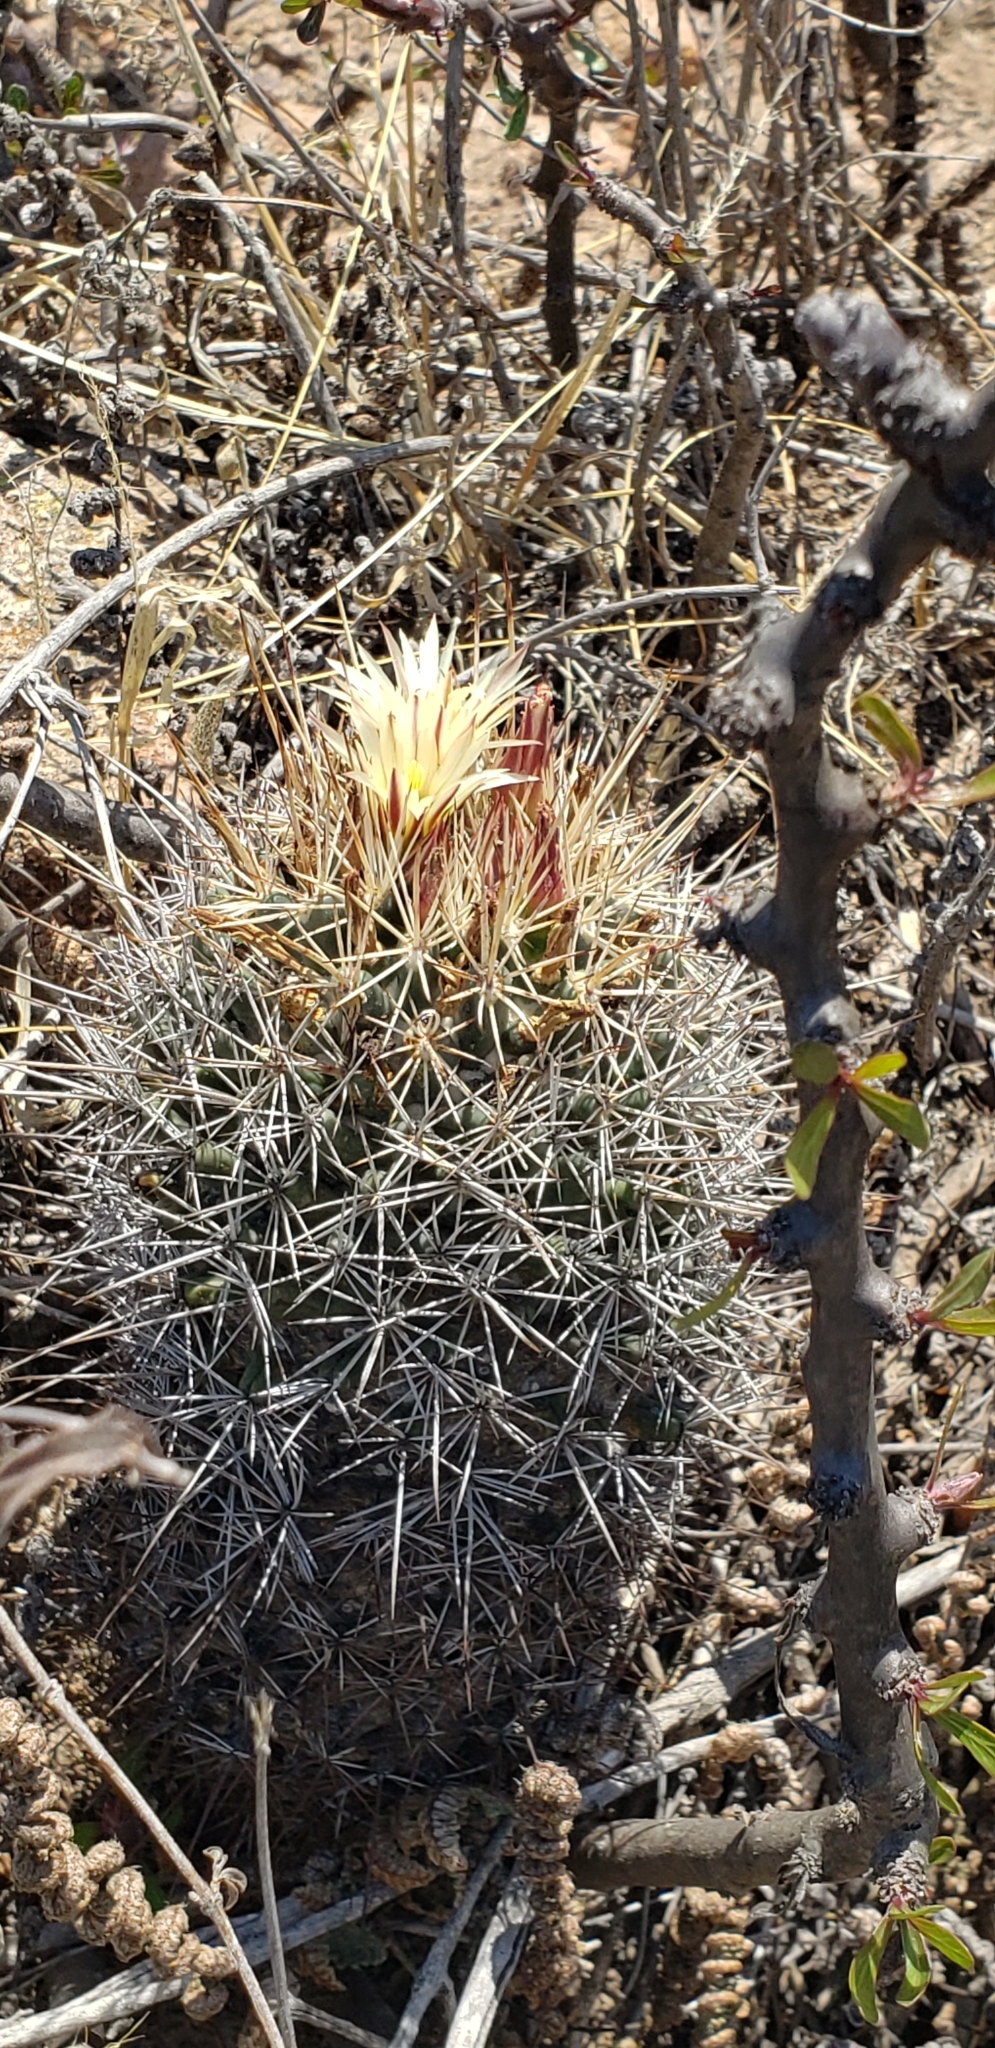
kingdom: Plantae
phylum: Tracheophyta
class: Magnoliopsida
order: Caryophyllales
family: Cactaceae
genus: Coryphantha
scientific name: Coryphantha clavata
